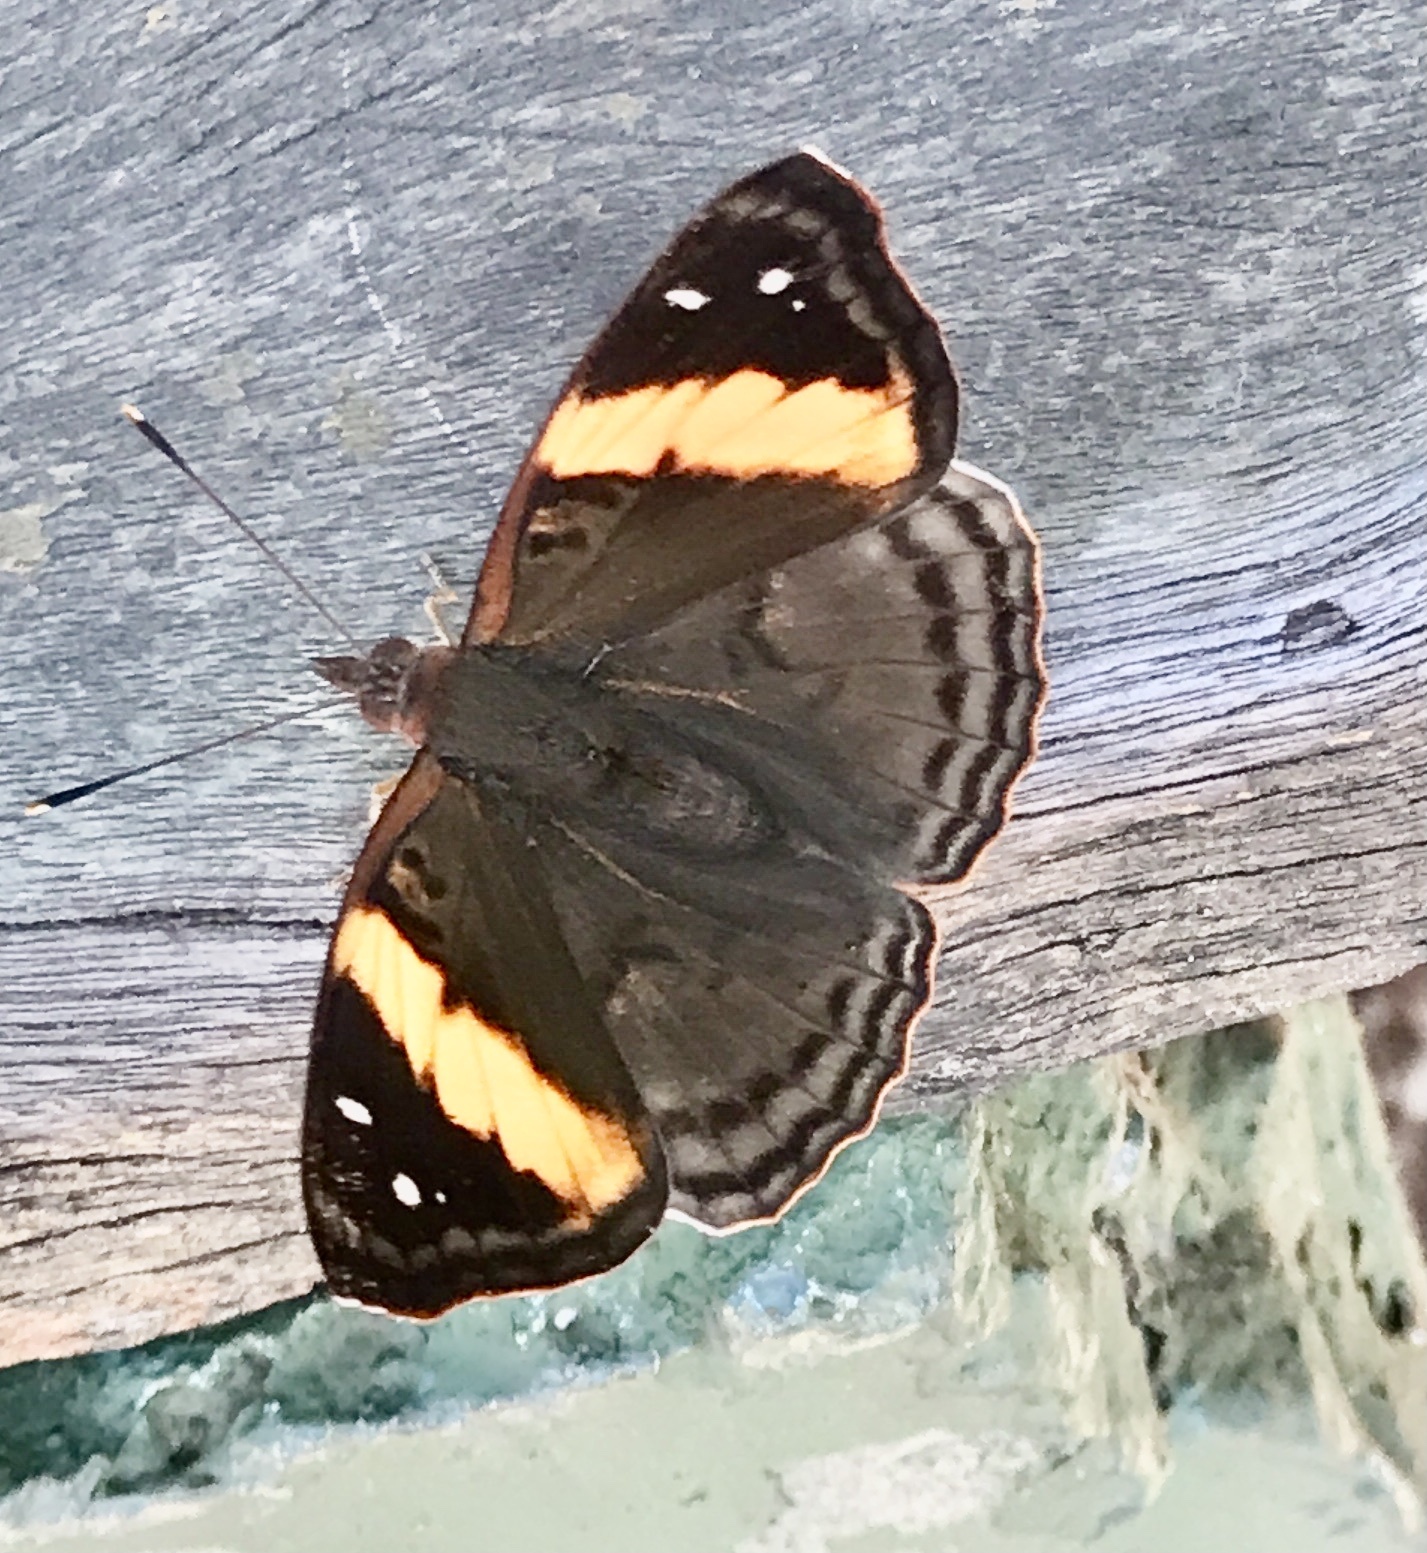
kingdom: Animalia
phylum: Arthropoda
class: Insecta
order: Lepidoptera
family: Nymphalidae
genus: Doxocopa
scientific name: Doxocopa agathina
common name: Agathina emperor
